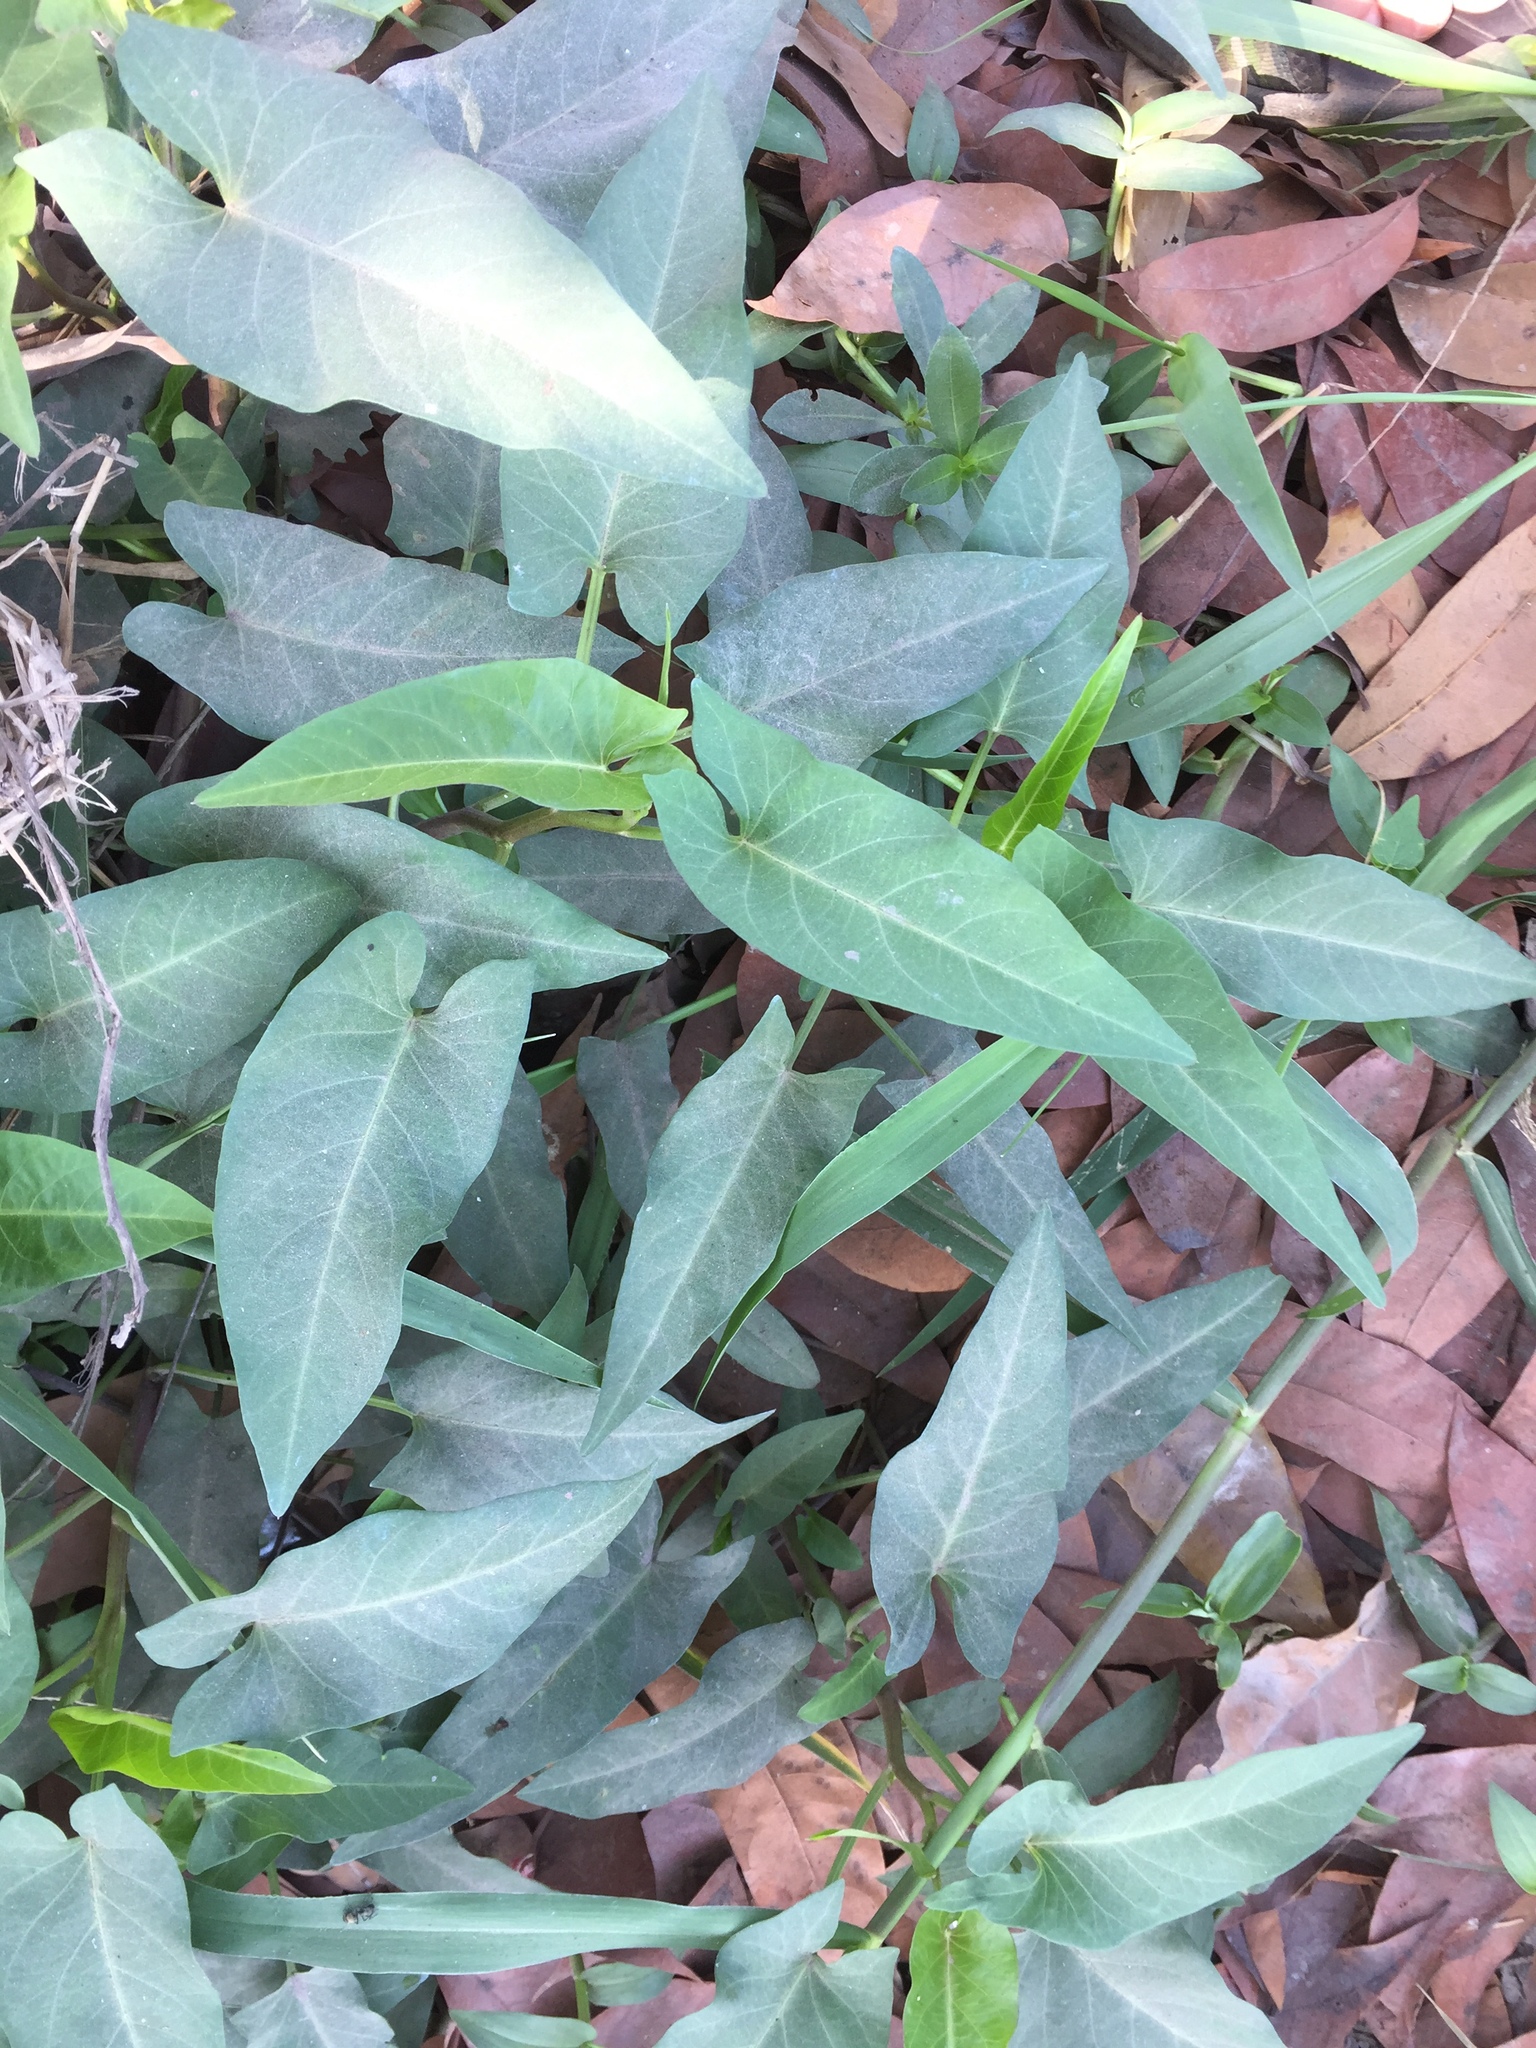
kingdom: Plantae
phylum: Tracheophyta
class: Magnoliopsida
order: Solanales
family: Convolvulaceae
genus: Ipomoea
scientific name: Ipomoea aquatica
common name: Swamp morning-glory
